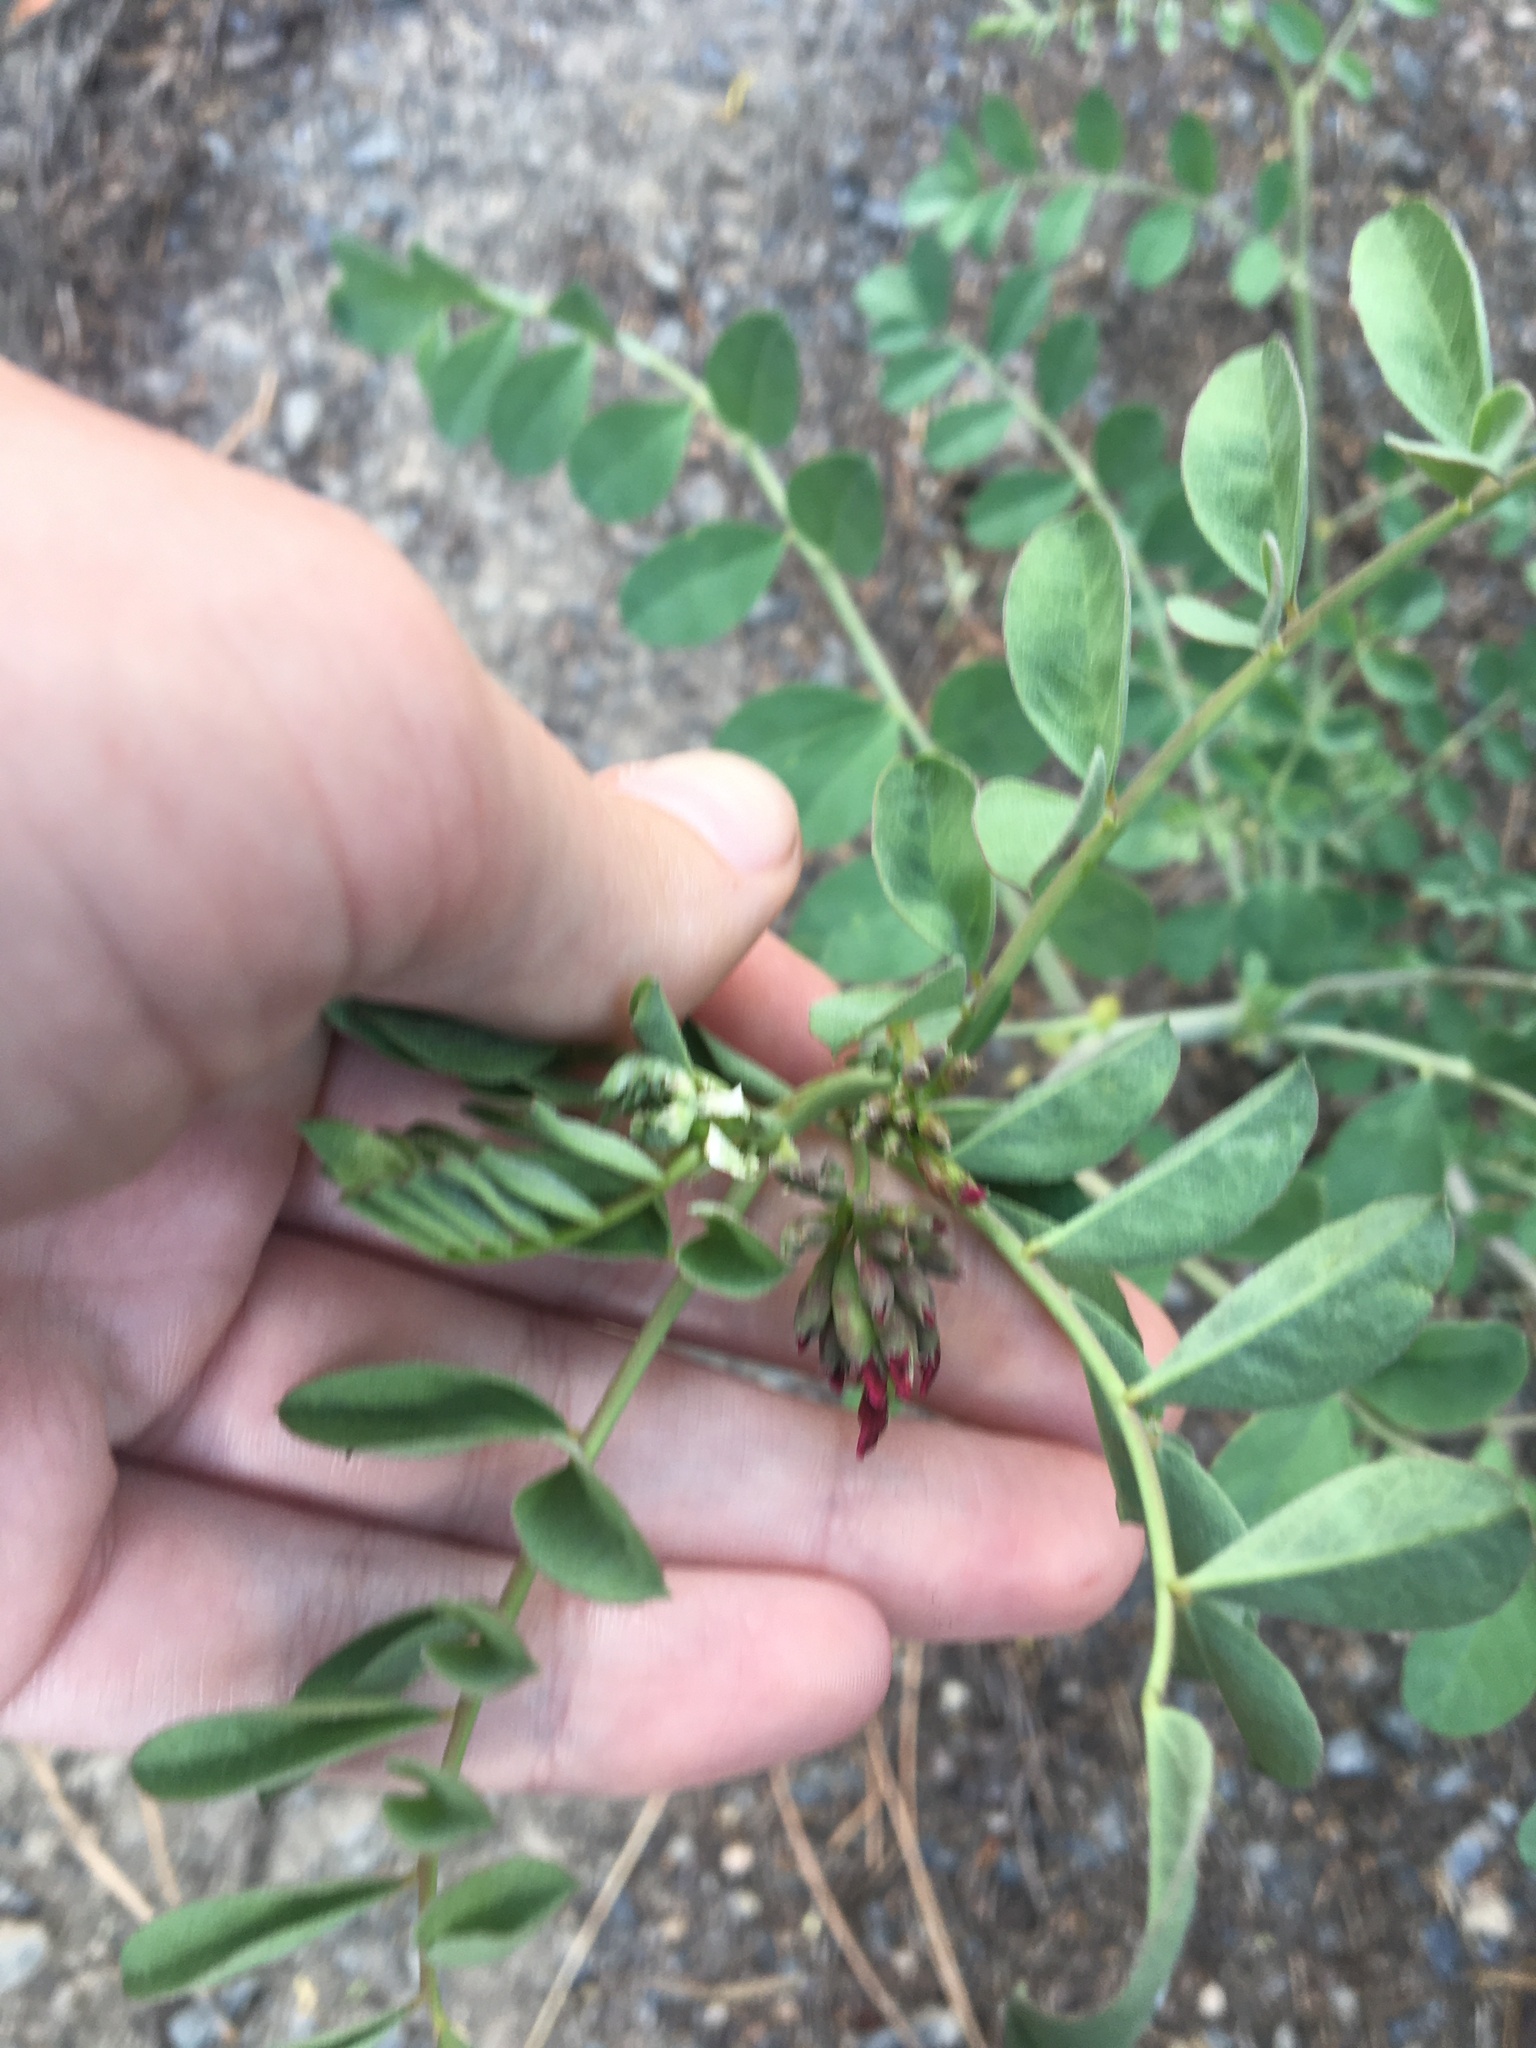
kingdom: Plantae
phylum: Tracheophyta
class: Magnoliopsida
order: Fabales
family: Fabaceae
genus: Hosackia
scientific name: Hosackia crassifolia
